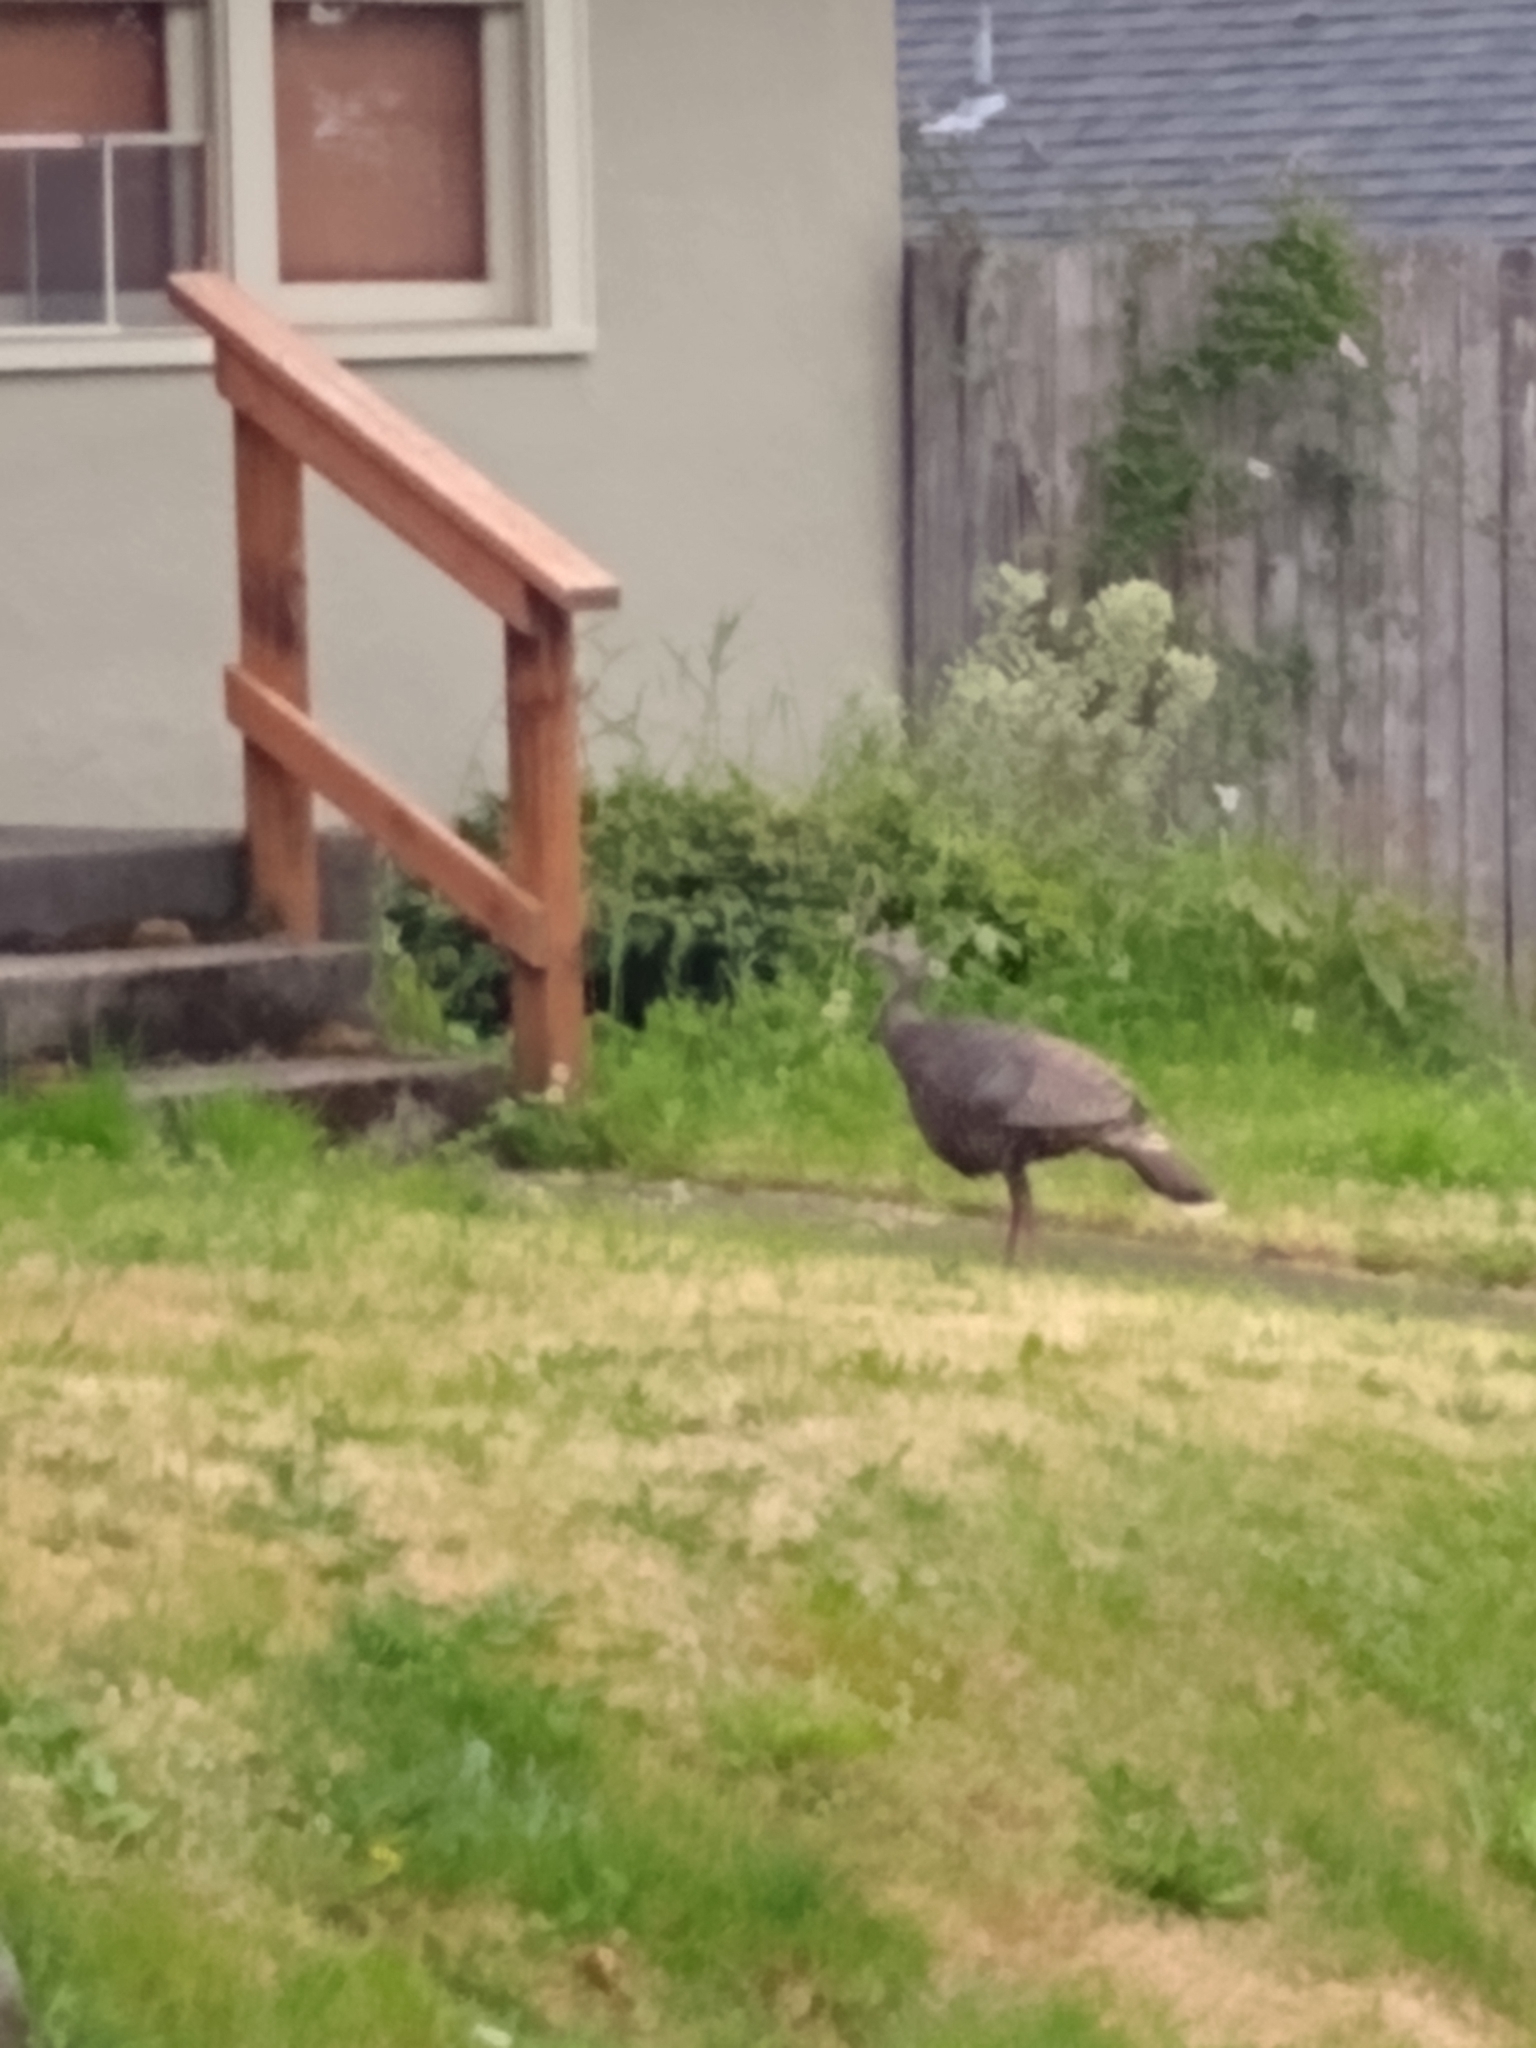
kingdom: Animalia
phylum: Chordata
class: Aves
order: Galliformes
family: Phasianidae
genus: Meleagris
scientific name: Meleagris gallopavo
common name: Wild turkey
